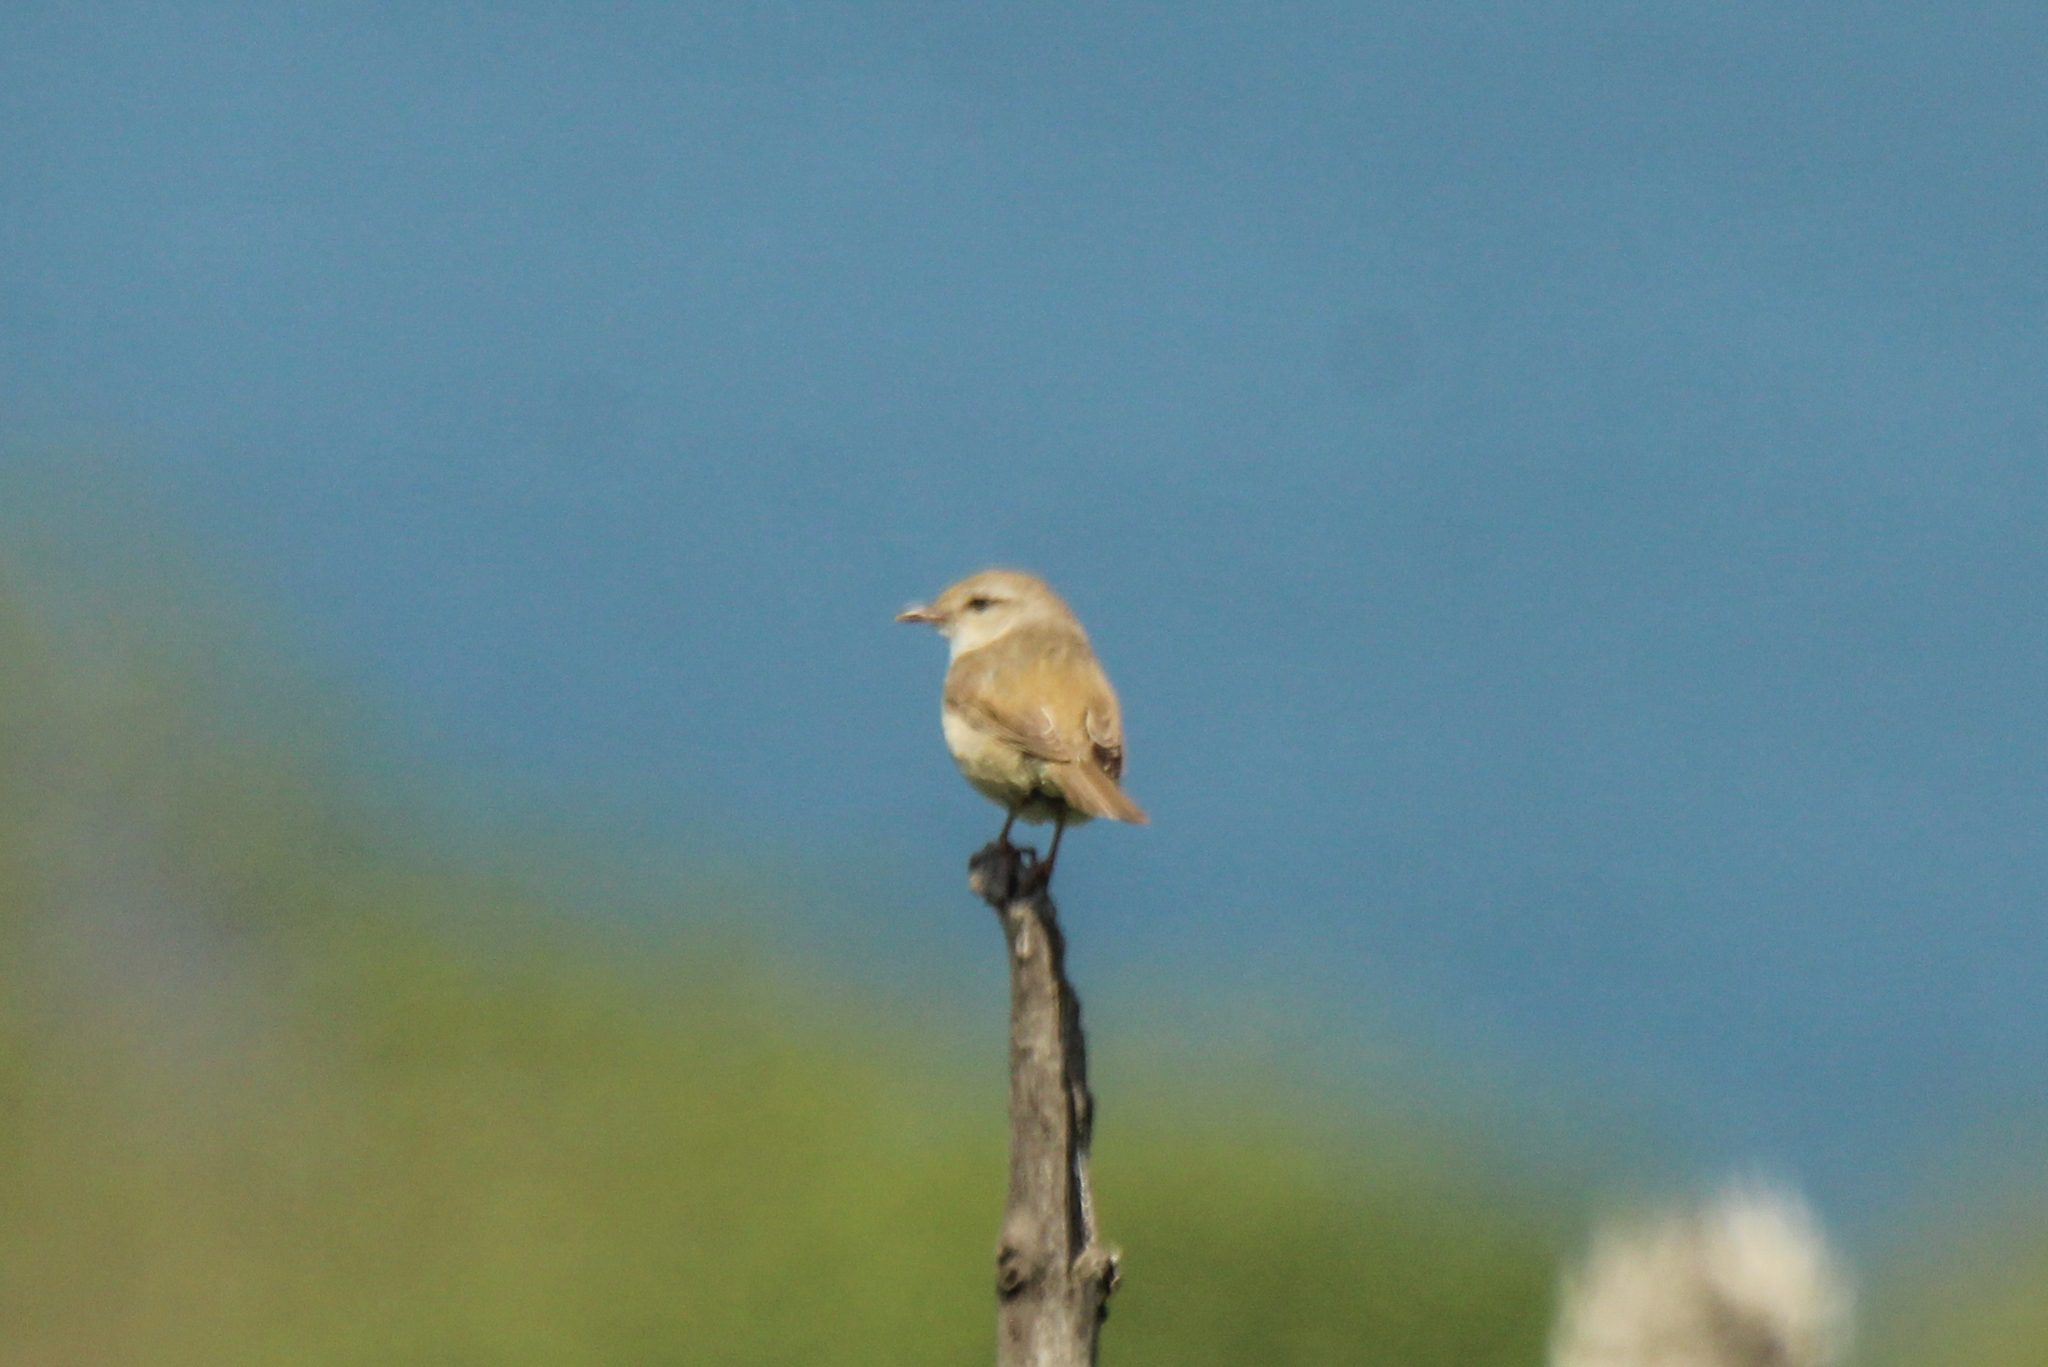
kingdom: Animalia
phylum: Chordata
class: Aves
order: Passeriformes
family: Cettiidae
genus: Horornis
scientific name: Horornis diphone
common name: Japanese bush warbler
